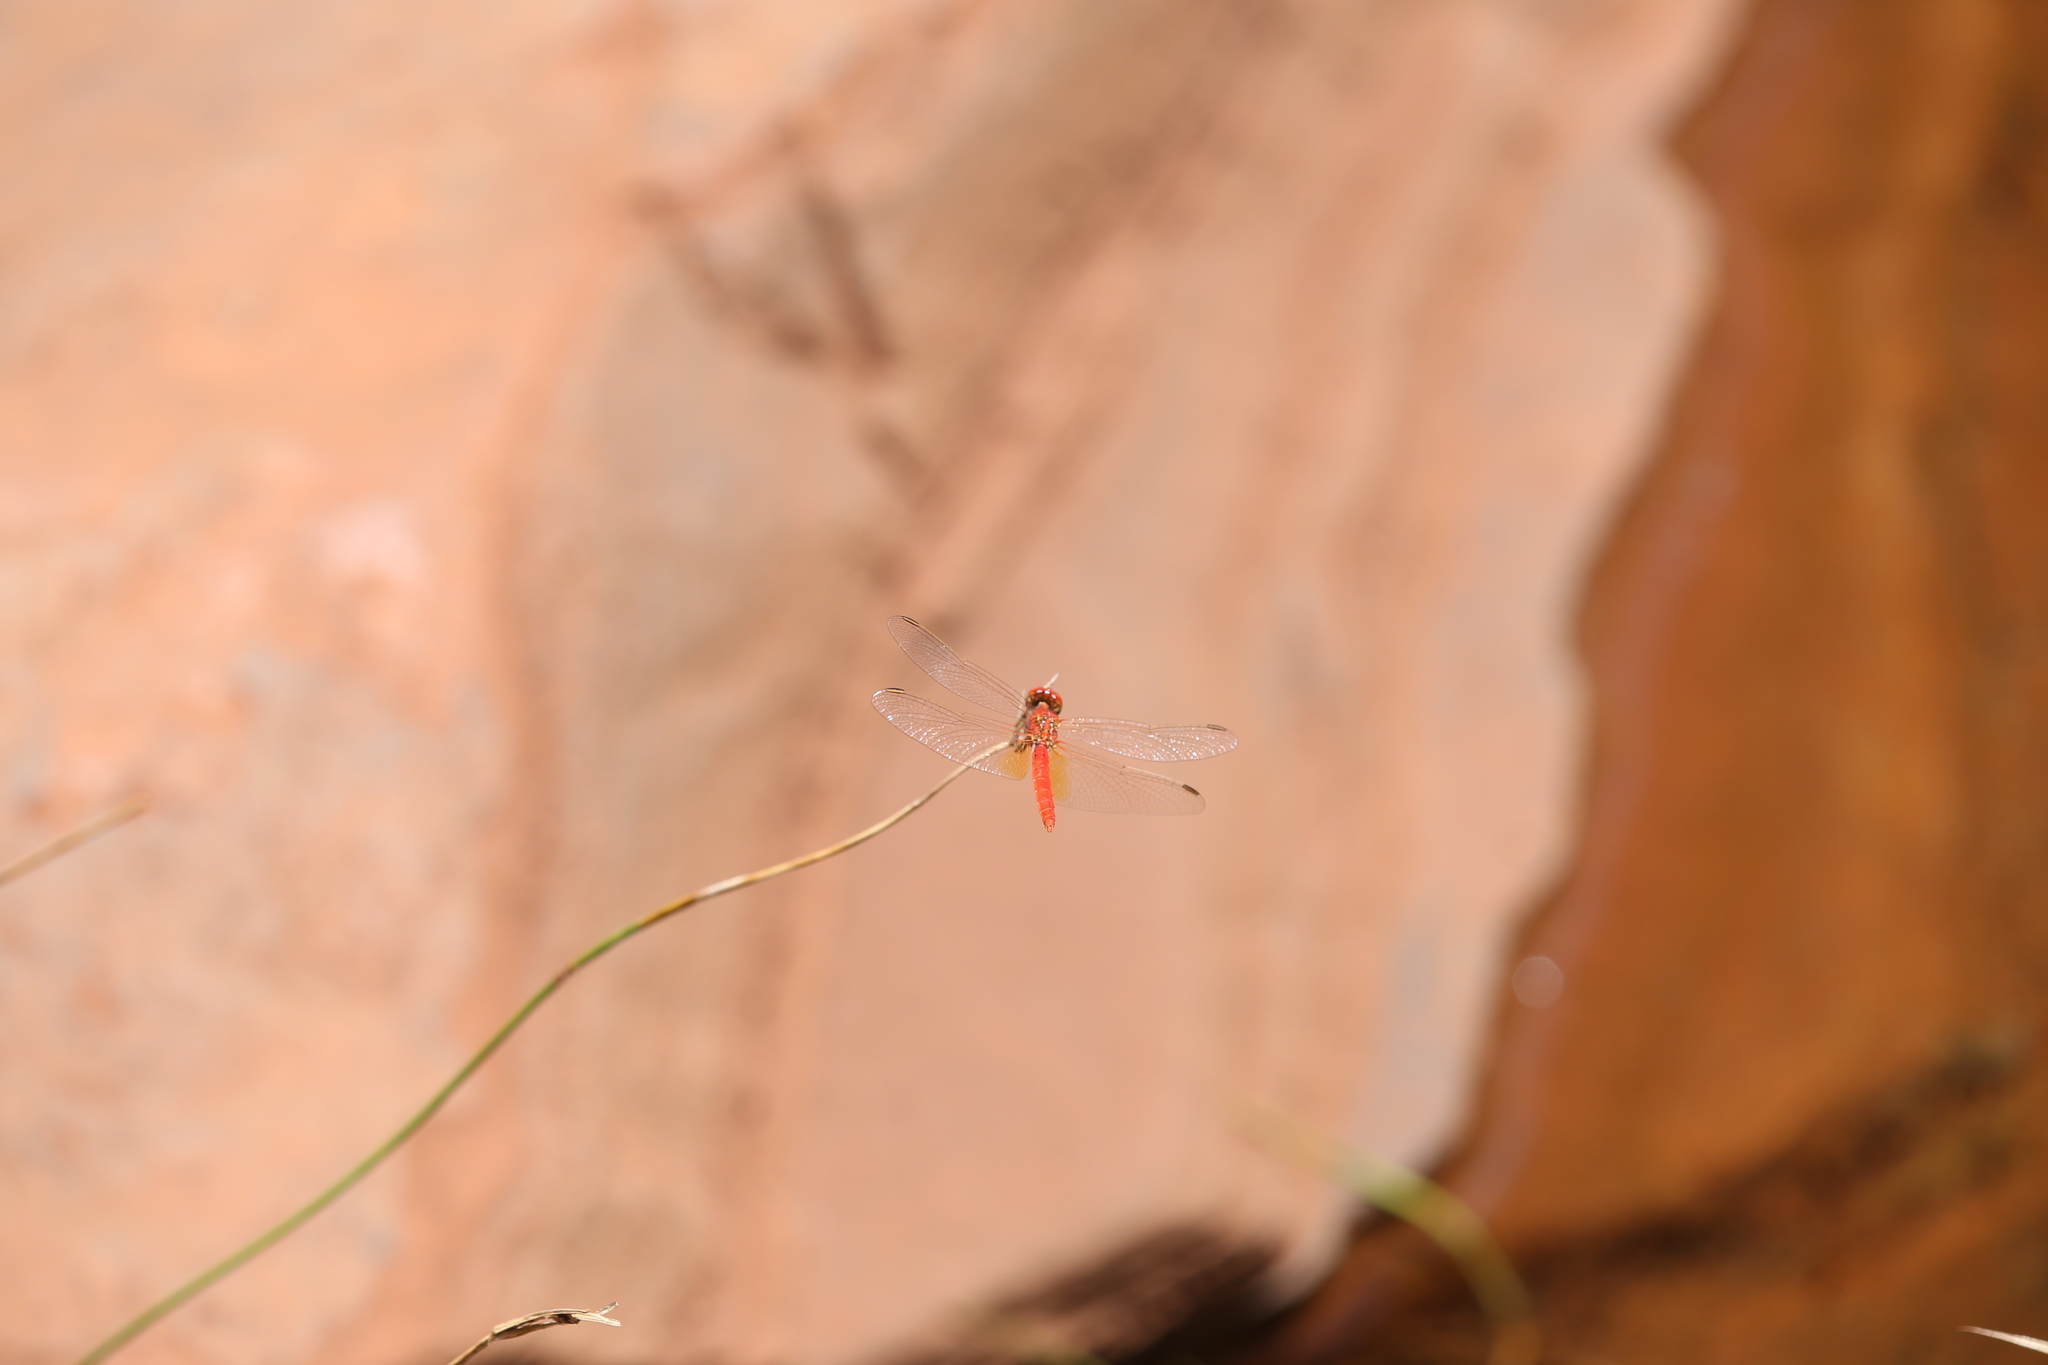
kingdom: Animalia
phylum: Arthropoda
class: Insecta
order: Odonata
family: Libellulidae
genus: Diplacodes
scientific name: Diplacodes haematodes
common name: Scarlet percher
